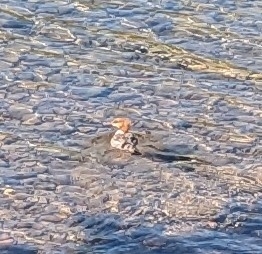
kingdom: Animalia
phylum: Chordata
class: Aves
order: Anseriformes
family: Anatidae
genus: Mergus
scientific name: Mergus merganser
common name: Common merganser
